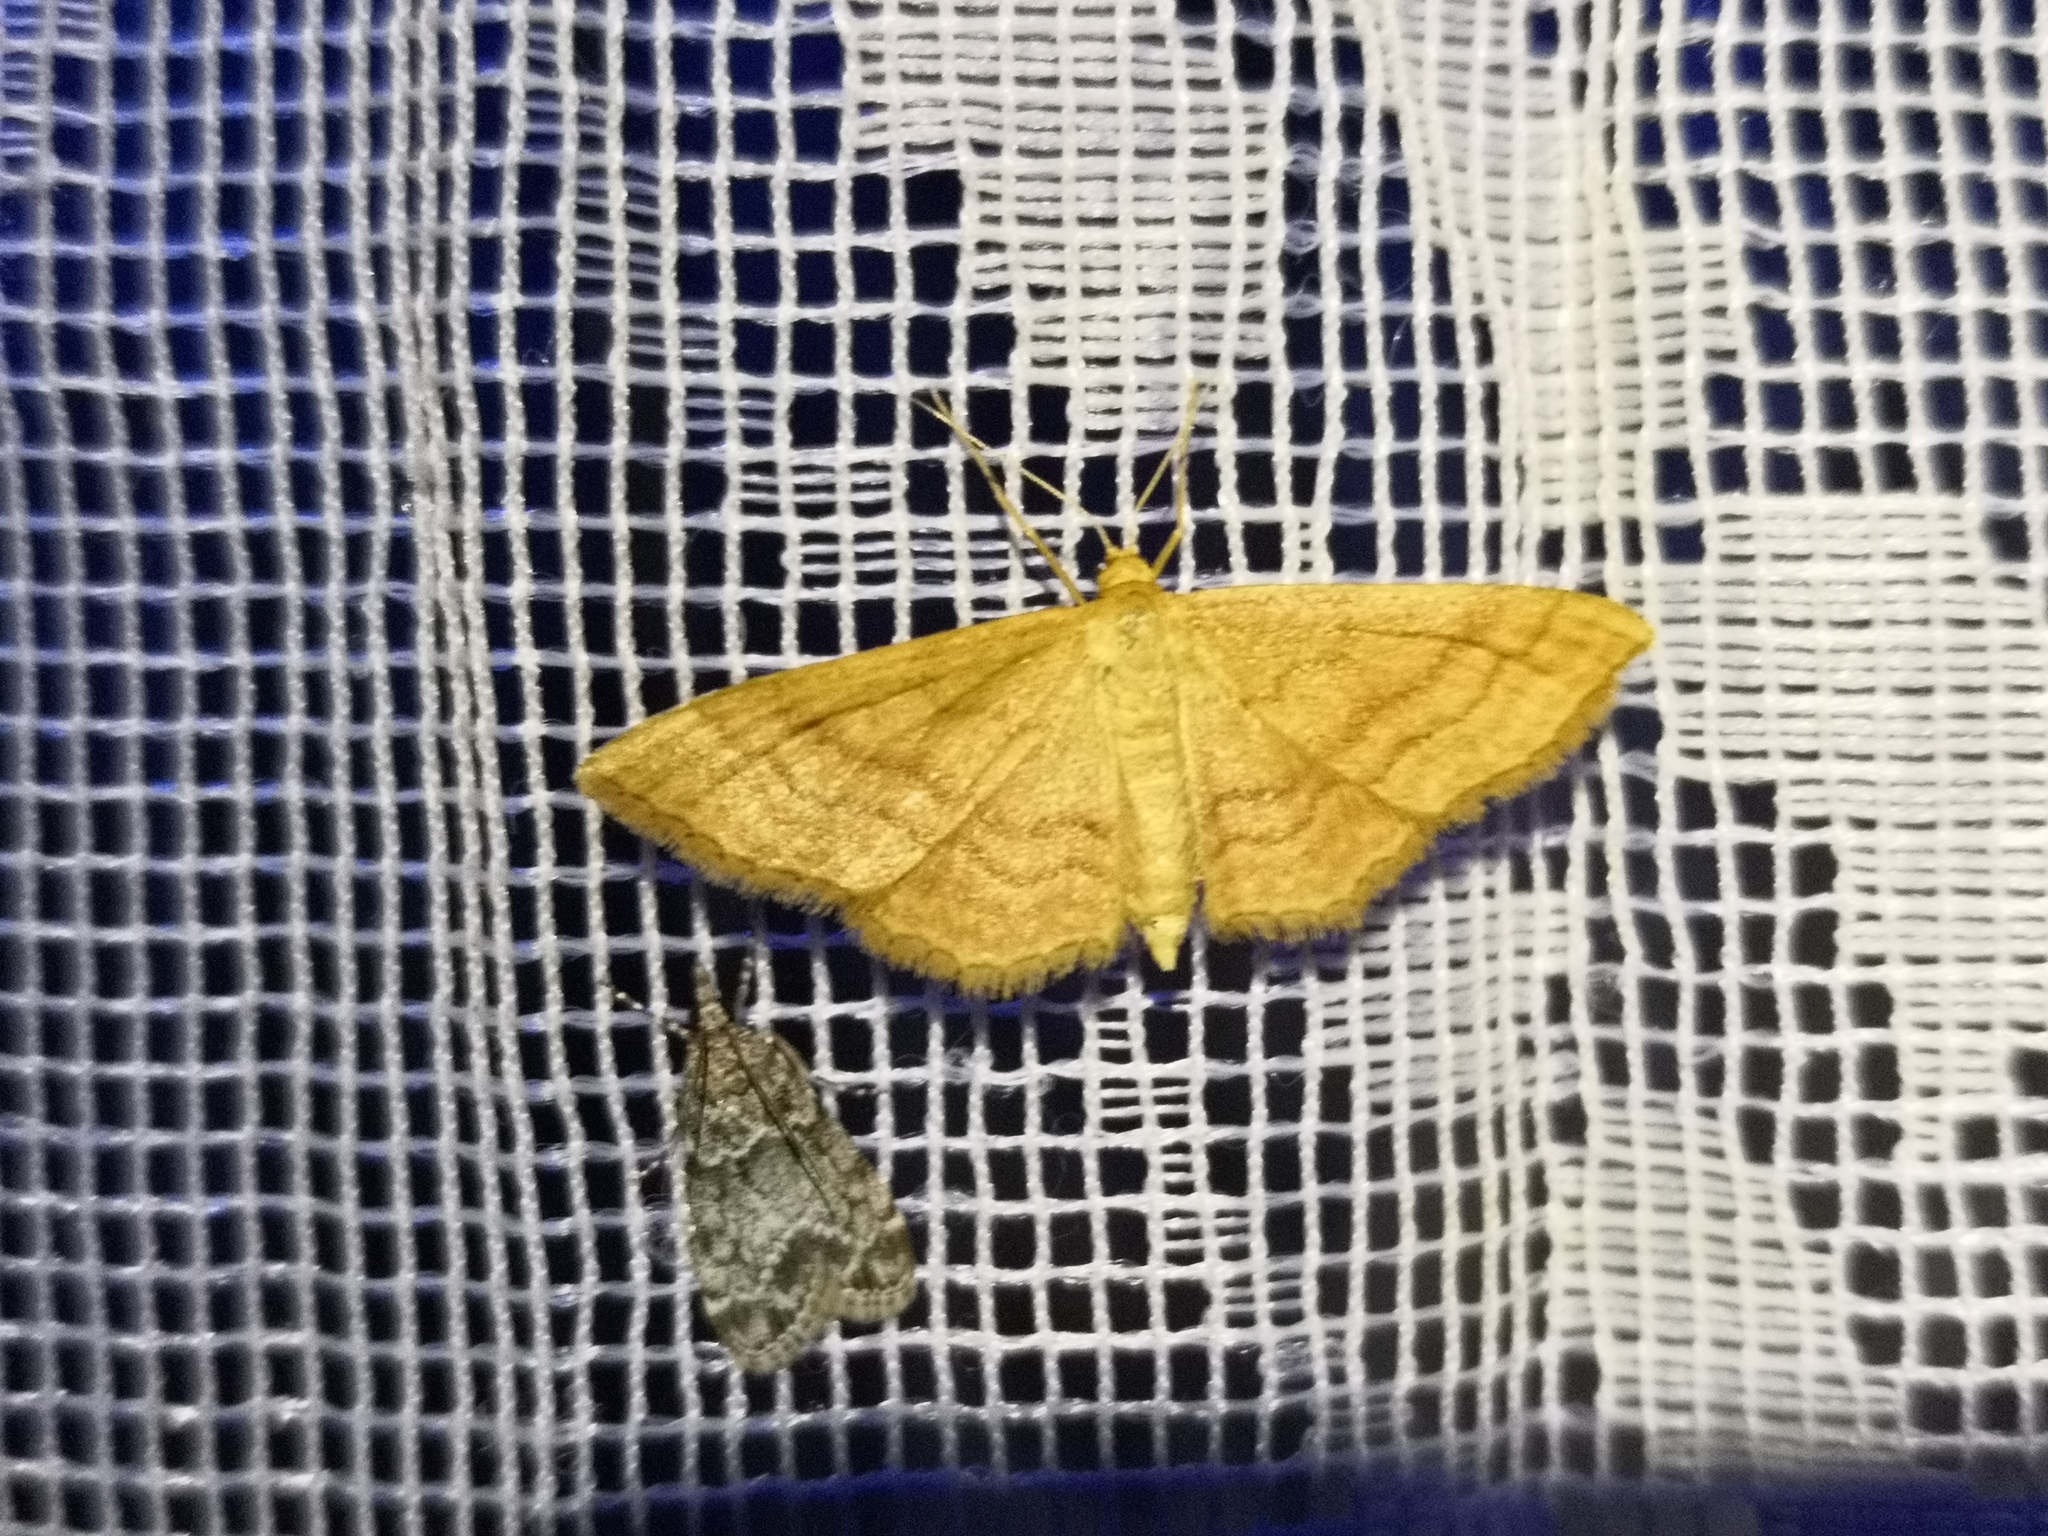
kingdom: Animalia
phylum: Arthropoda
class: Insecta
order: Lepidoptera
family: Geometridae
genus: Idaea
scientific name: Idaea ochrata
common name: Bright wave
